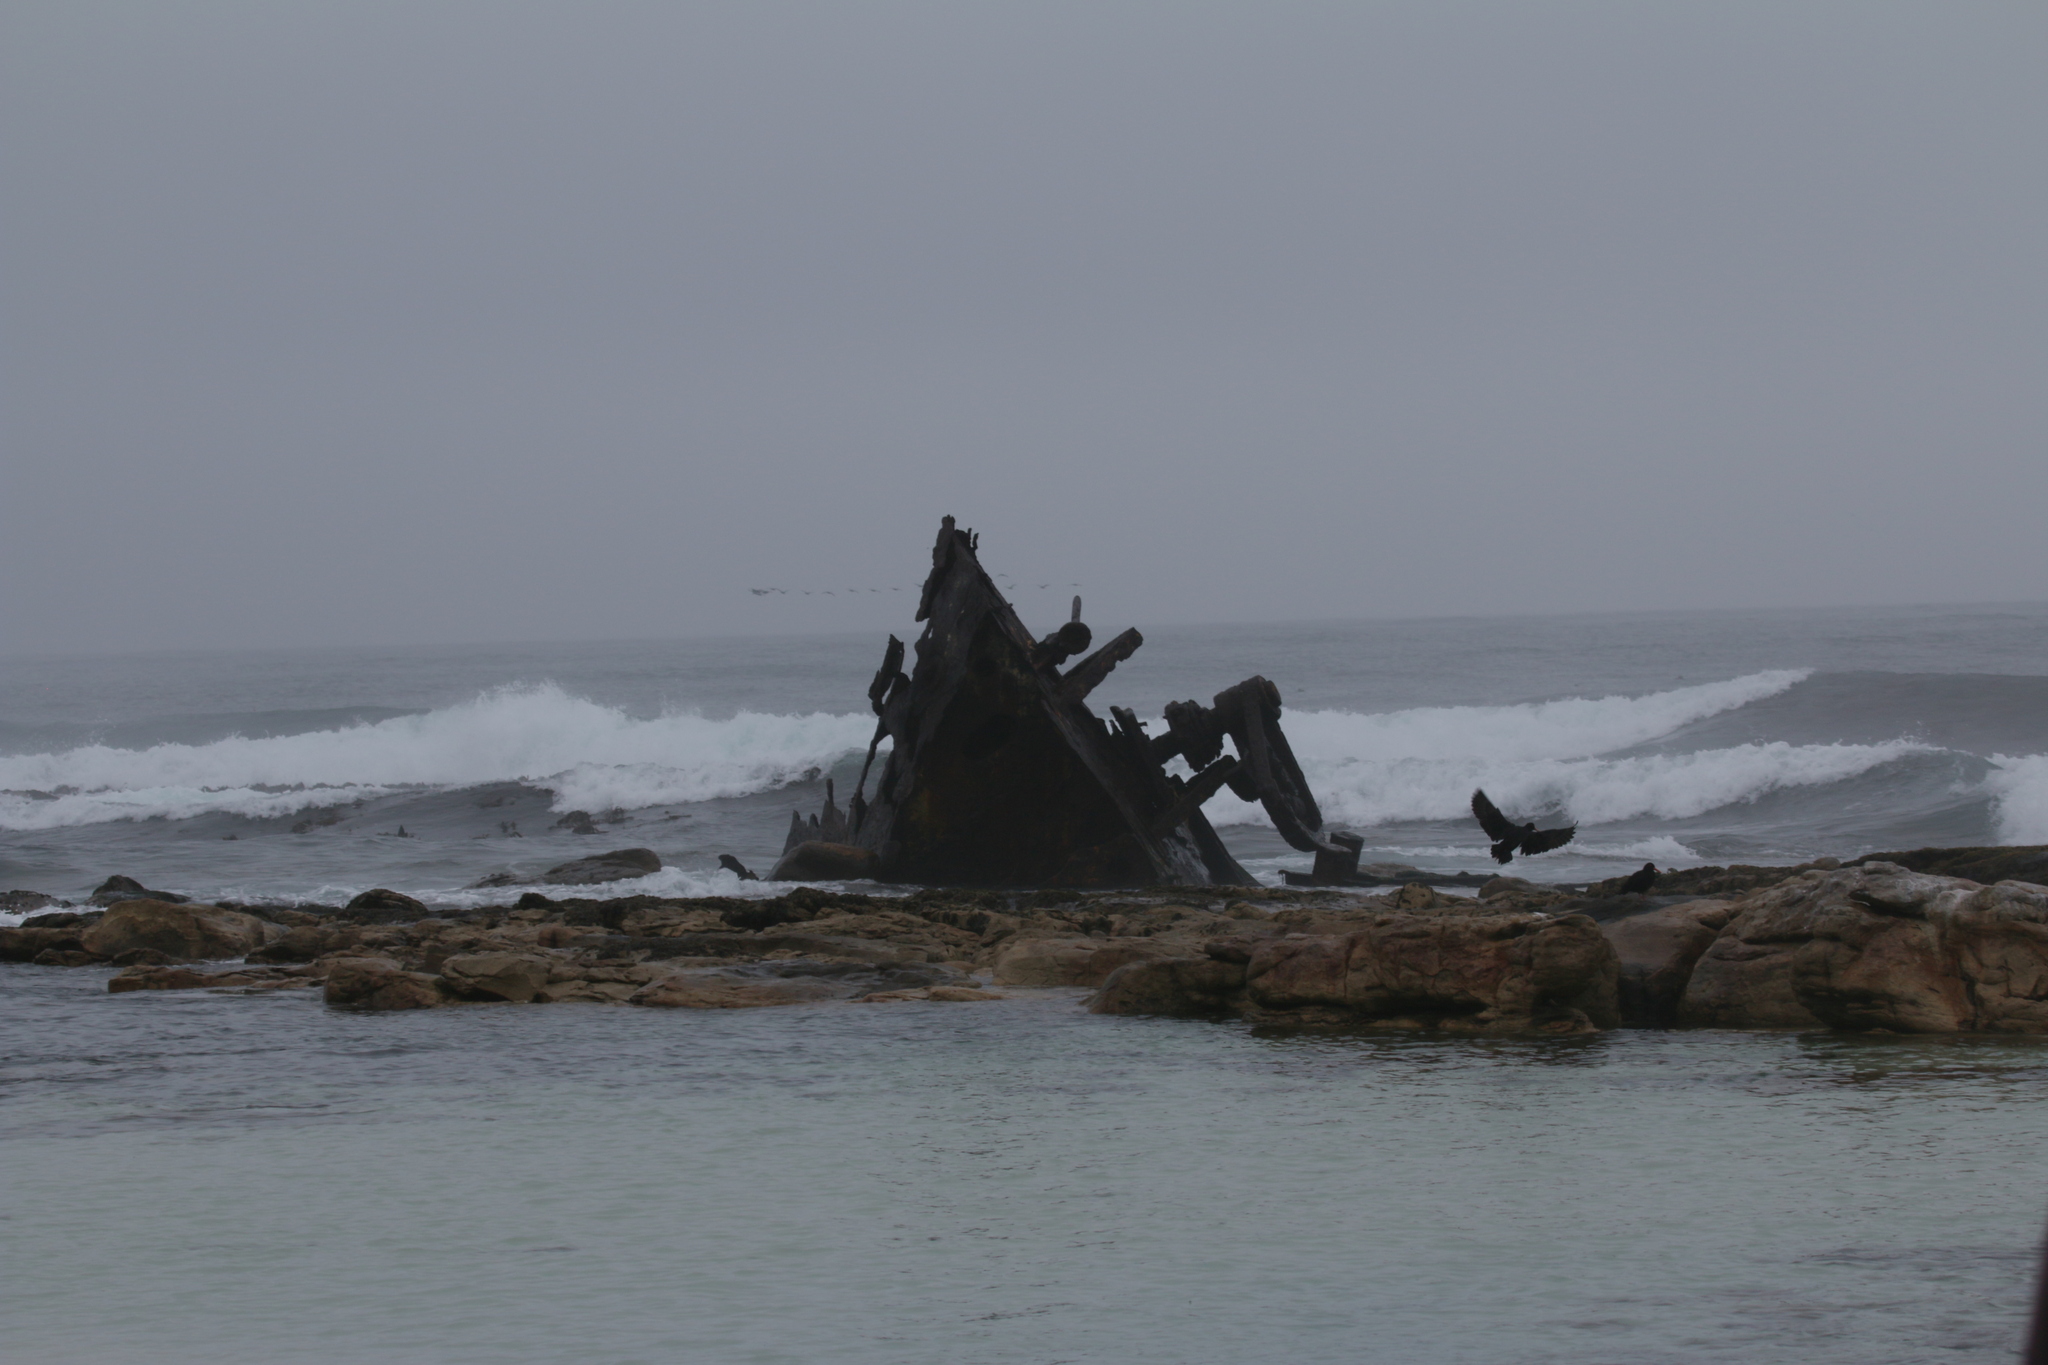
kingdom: Animalia
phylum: Chordata
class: Aves
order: Charadriiformes
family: Haematopodidae
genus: Haematopus
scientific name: Haematopus moquini
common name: African oystercatcher
